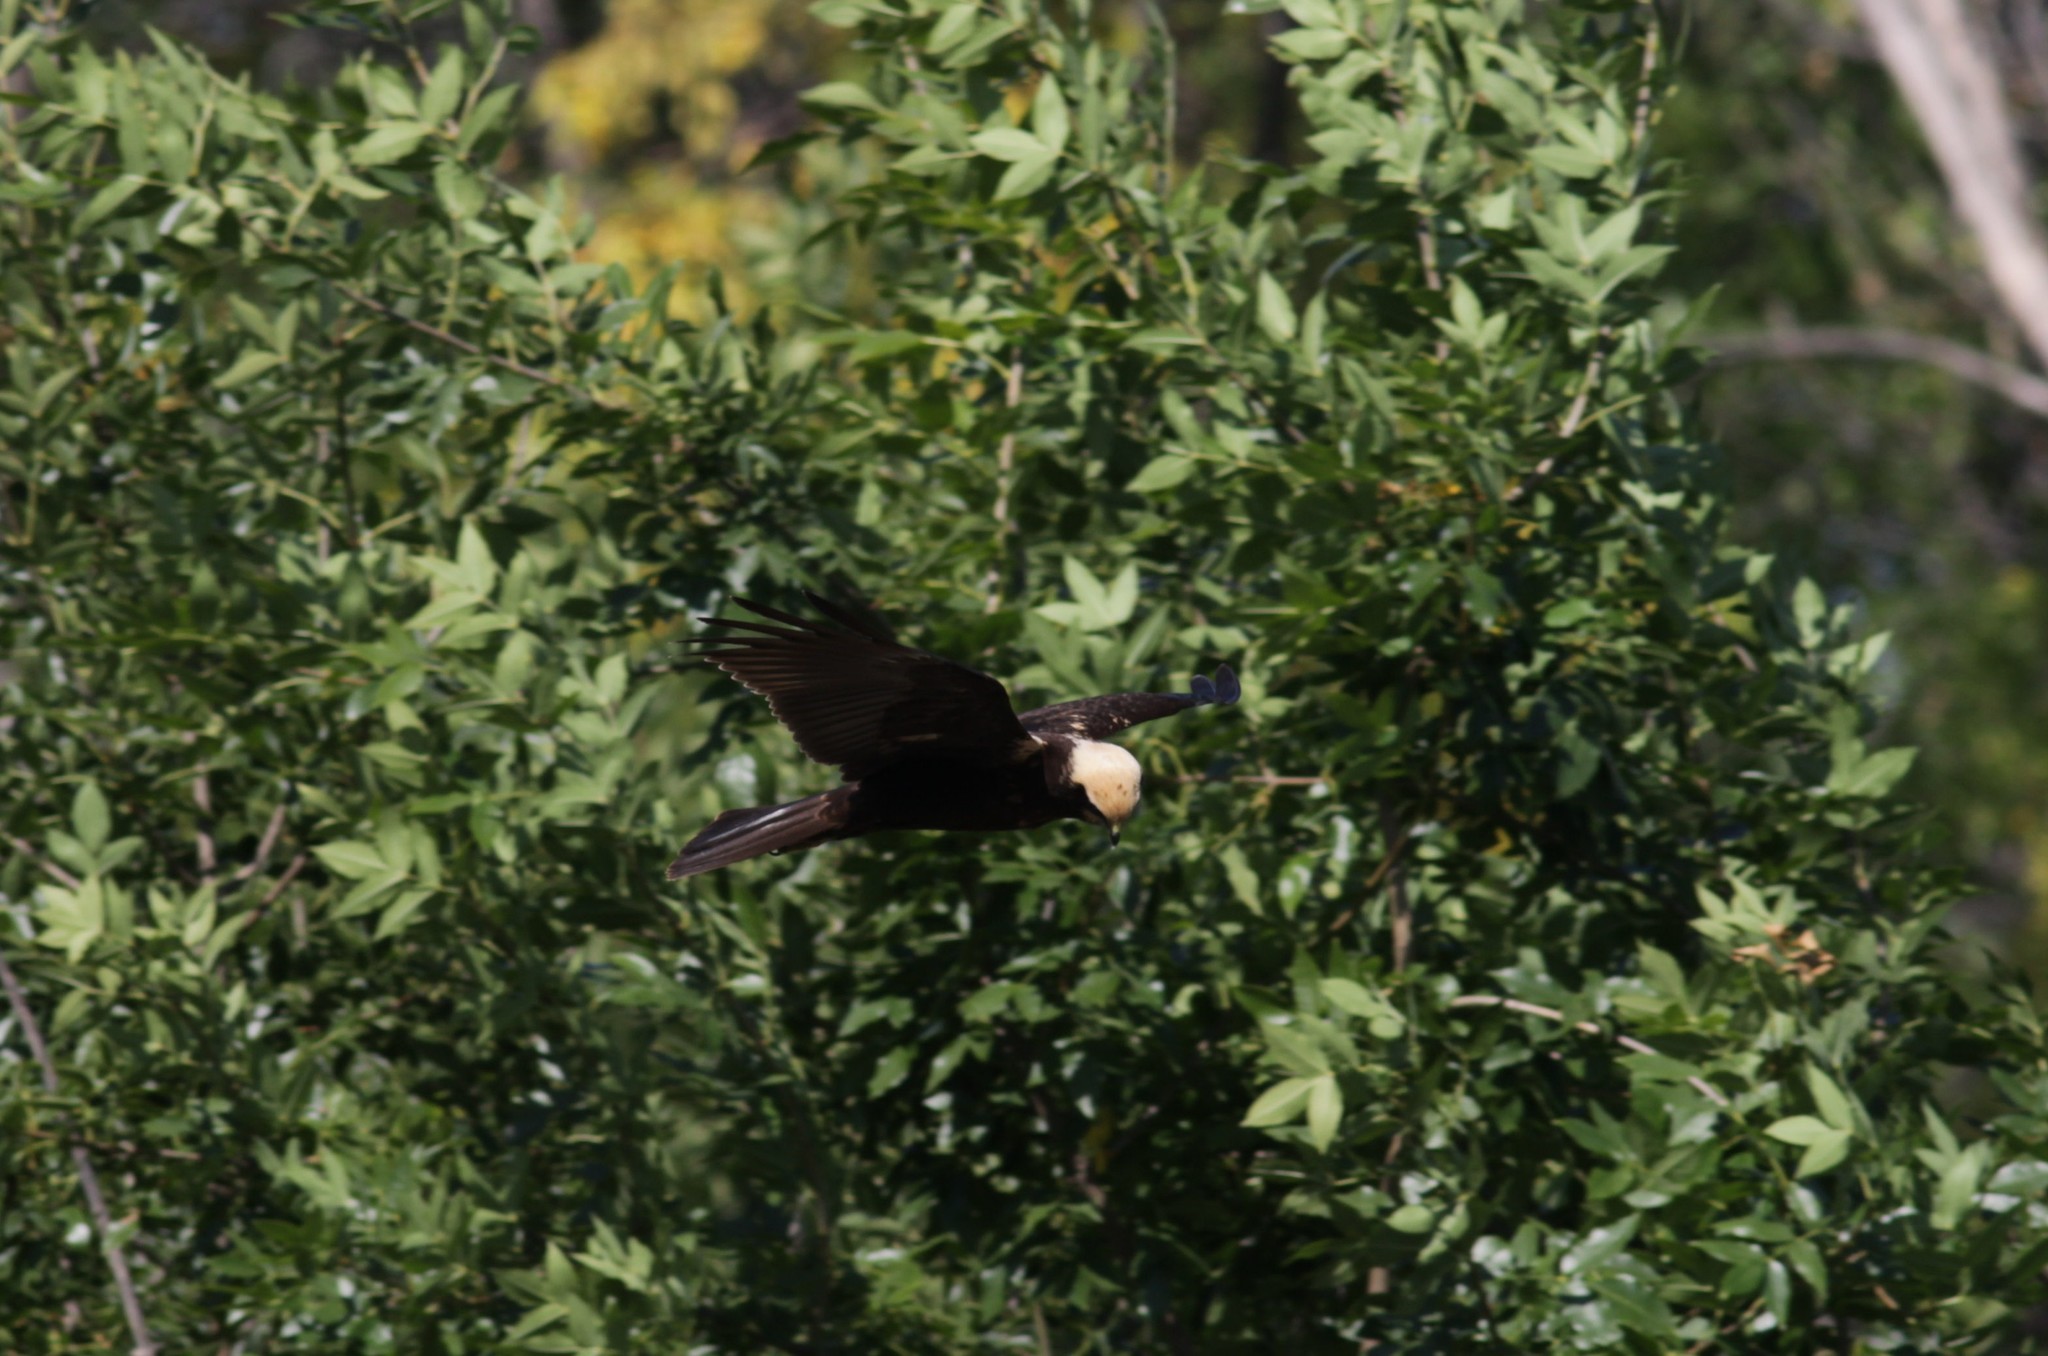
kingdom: Animalia
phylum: Chordata
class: Aves
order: Accipitriformes
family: Accipitridae
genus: Circus
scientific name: Circus aeruginosus
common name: Western marsh harrier
